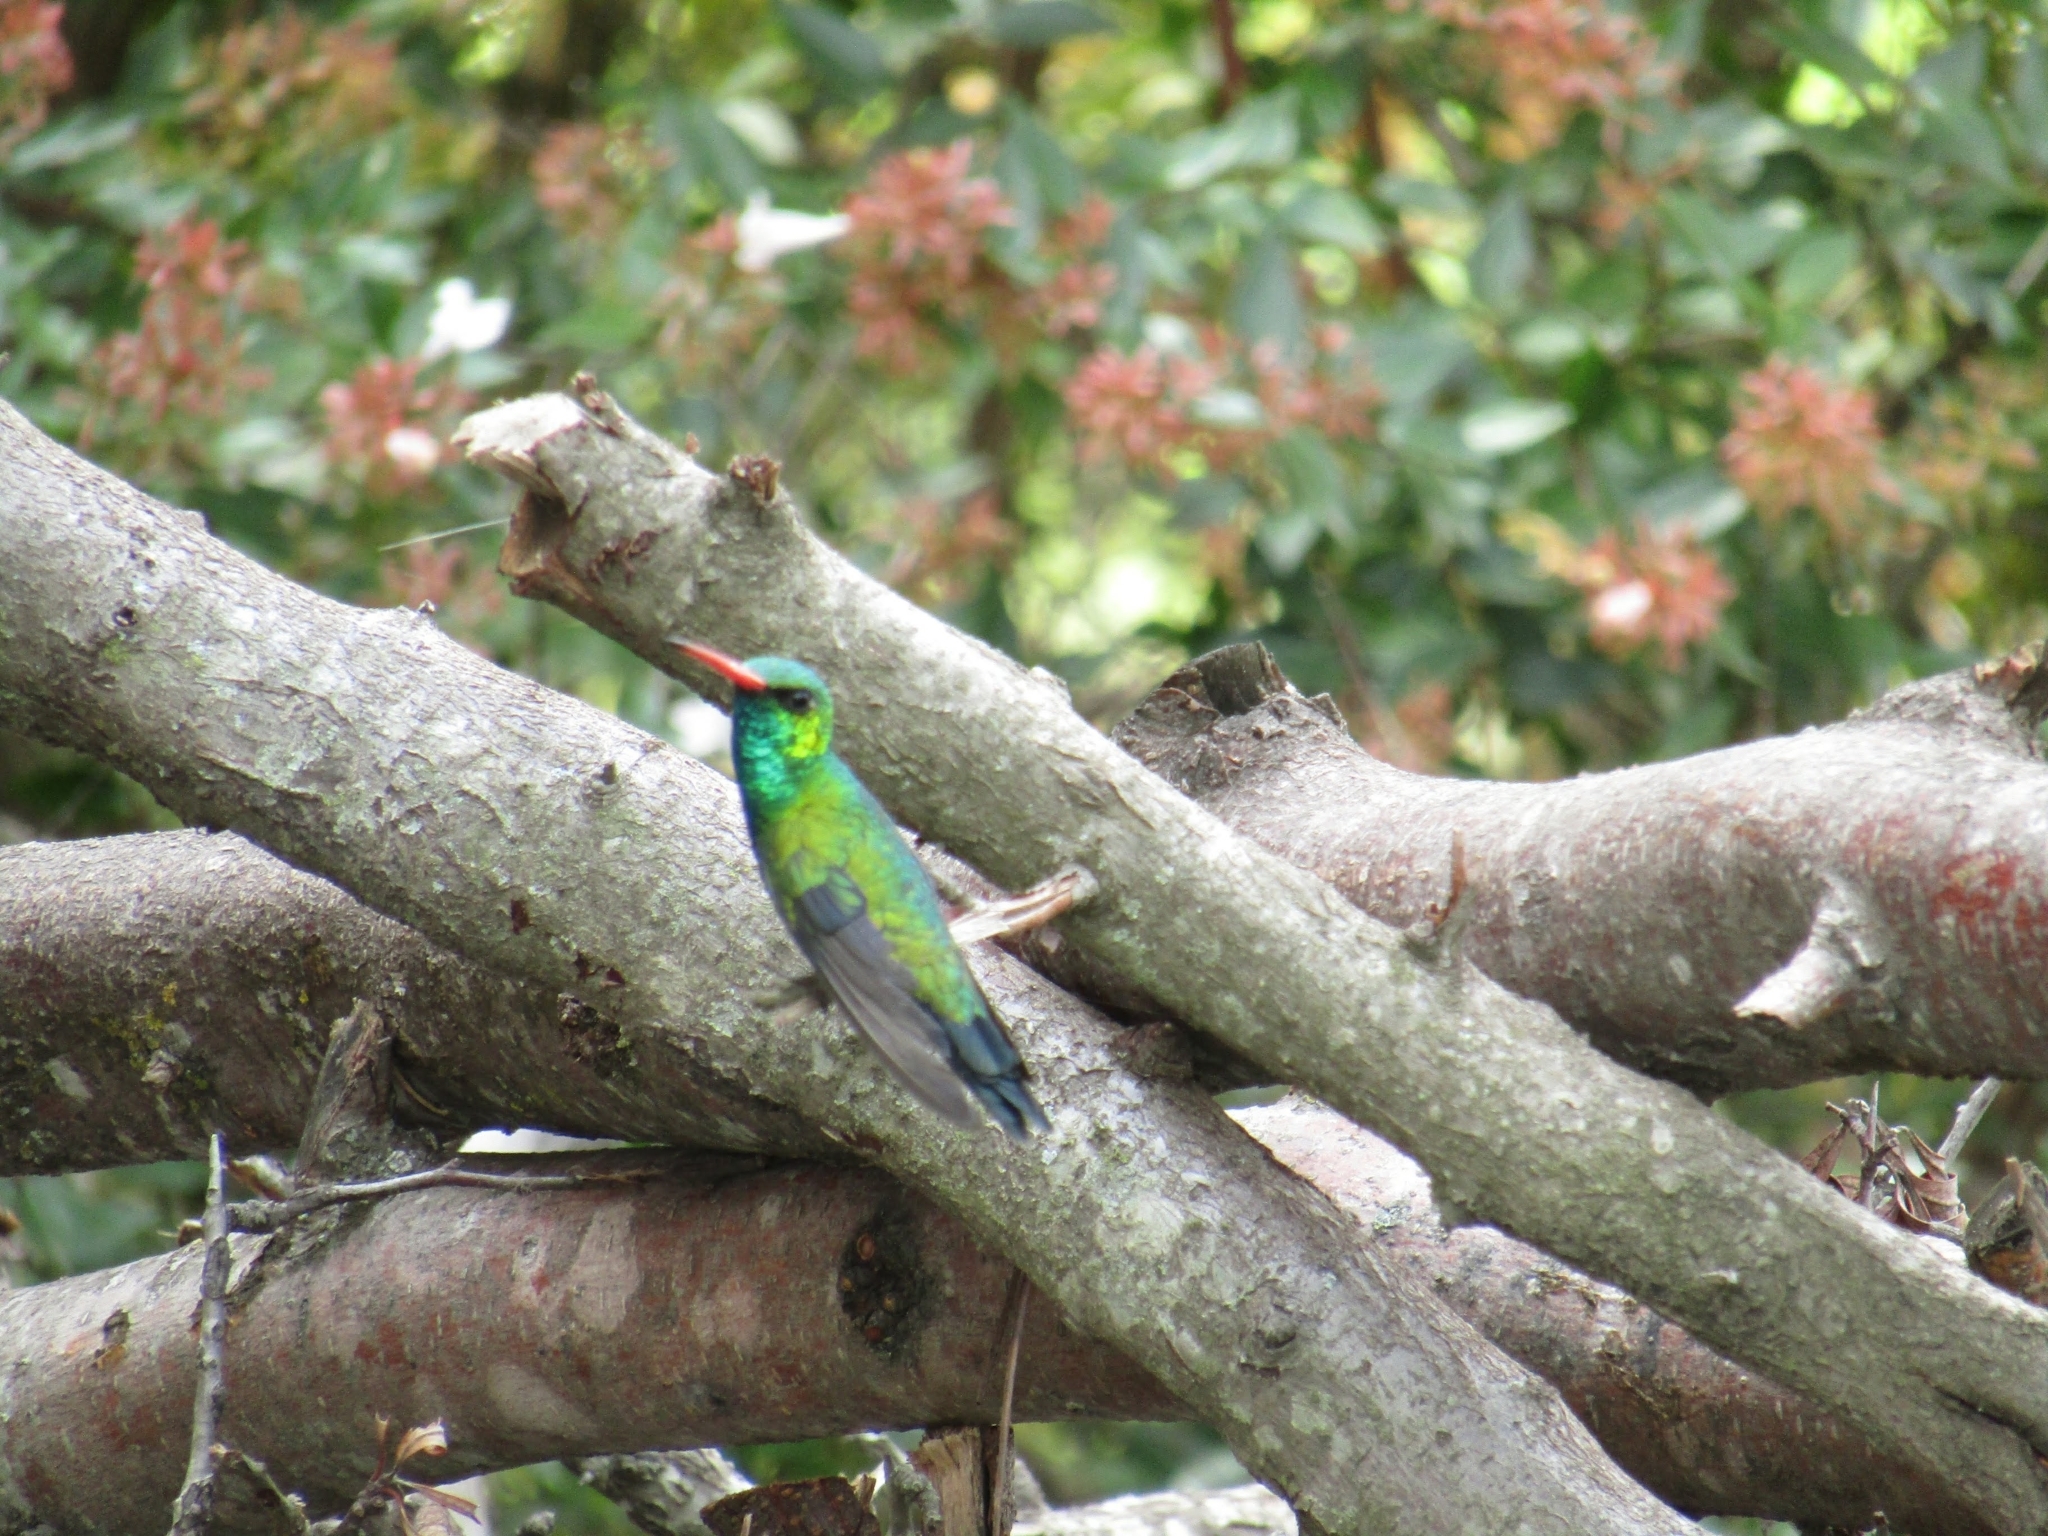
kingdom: Animalia
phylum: Chordata
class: Aves
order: Apodiformes
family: Trochilidae
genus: Chlorostilbon
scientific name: Chlorostilbon lucidus
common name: Glittering-bellied emerald
